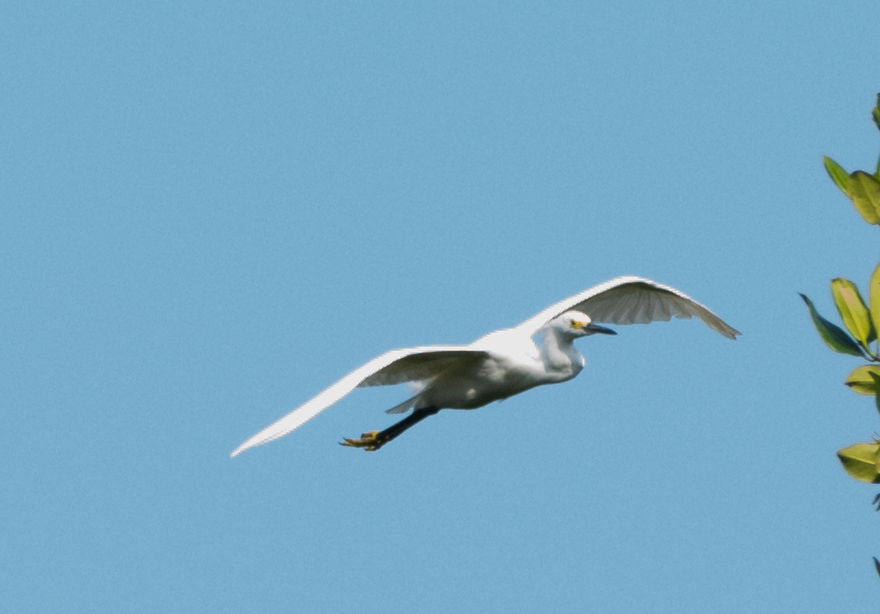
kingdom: Animalia
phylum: Chordata
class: Aves
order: Pelecaniformes
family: Ardeidae
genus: Egretta
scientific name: Egretta thula
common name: Snowy egret
